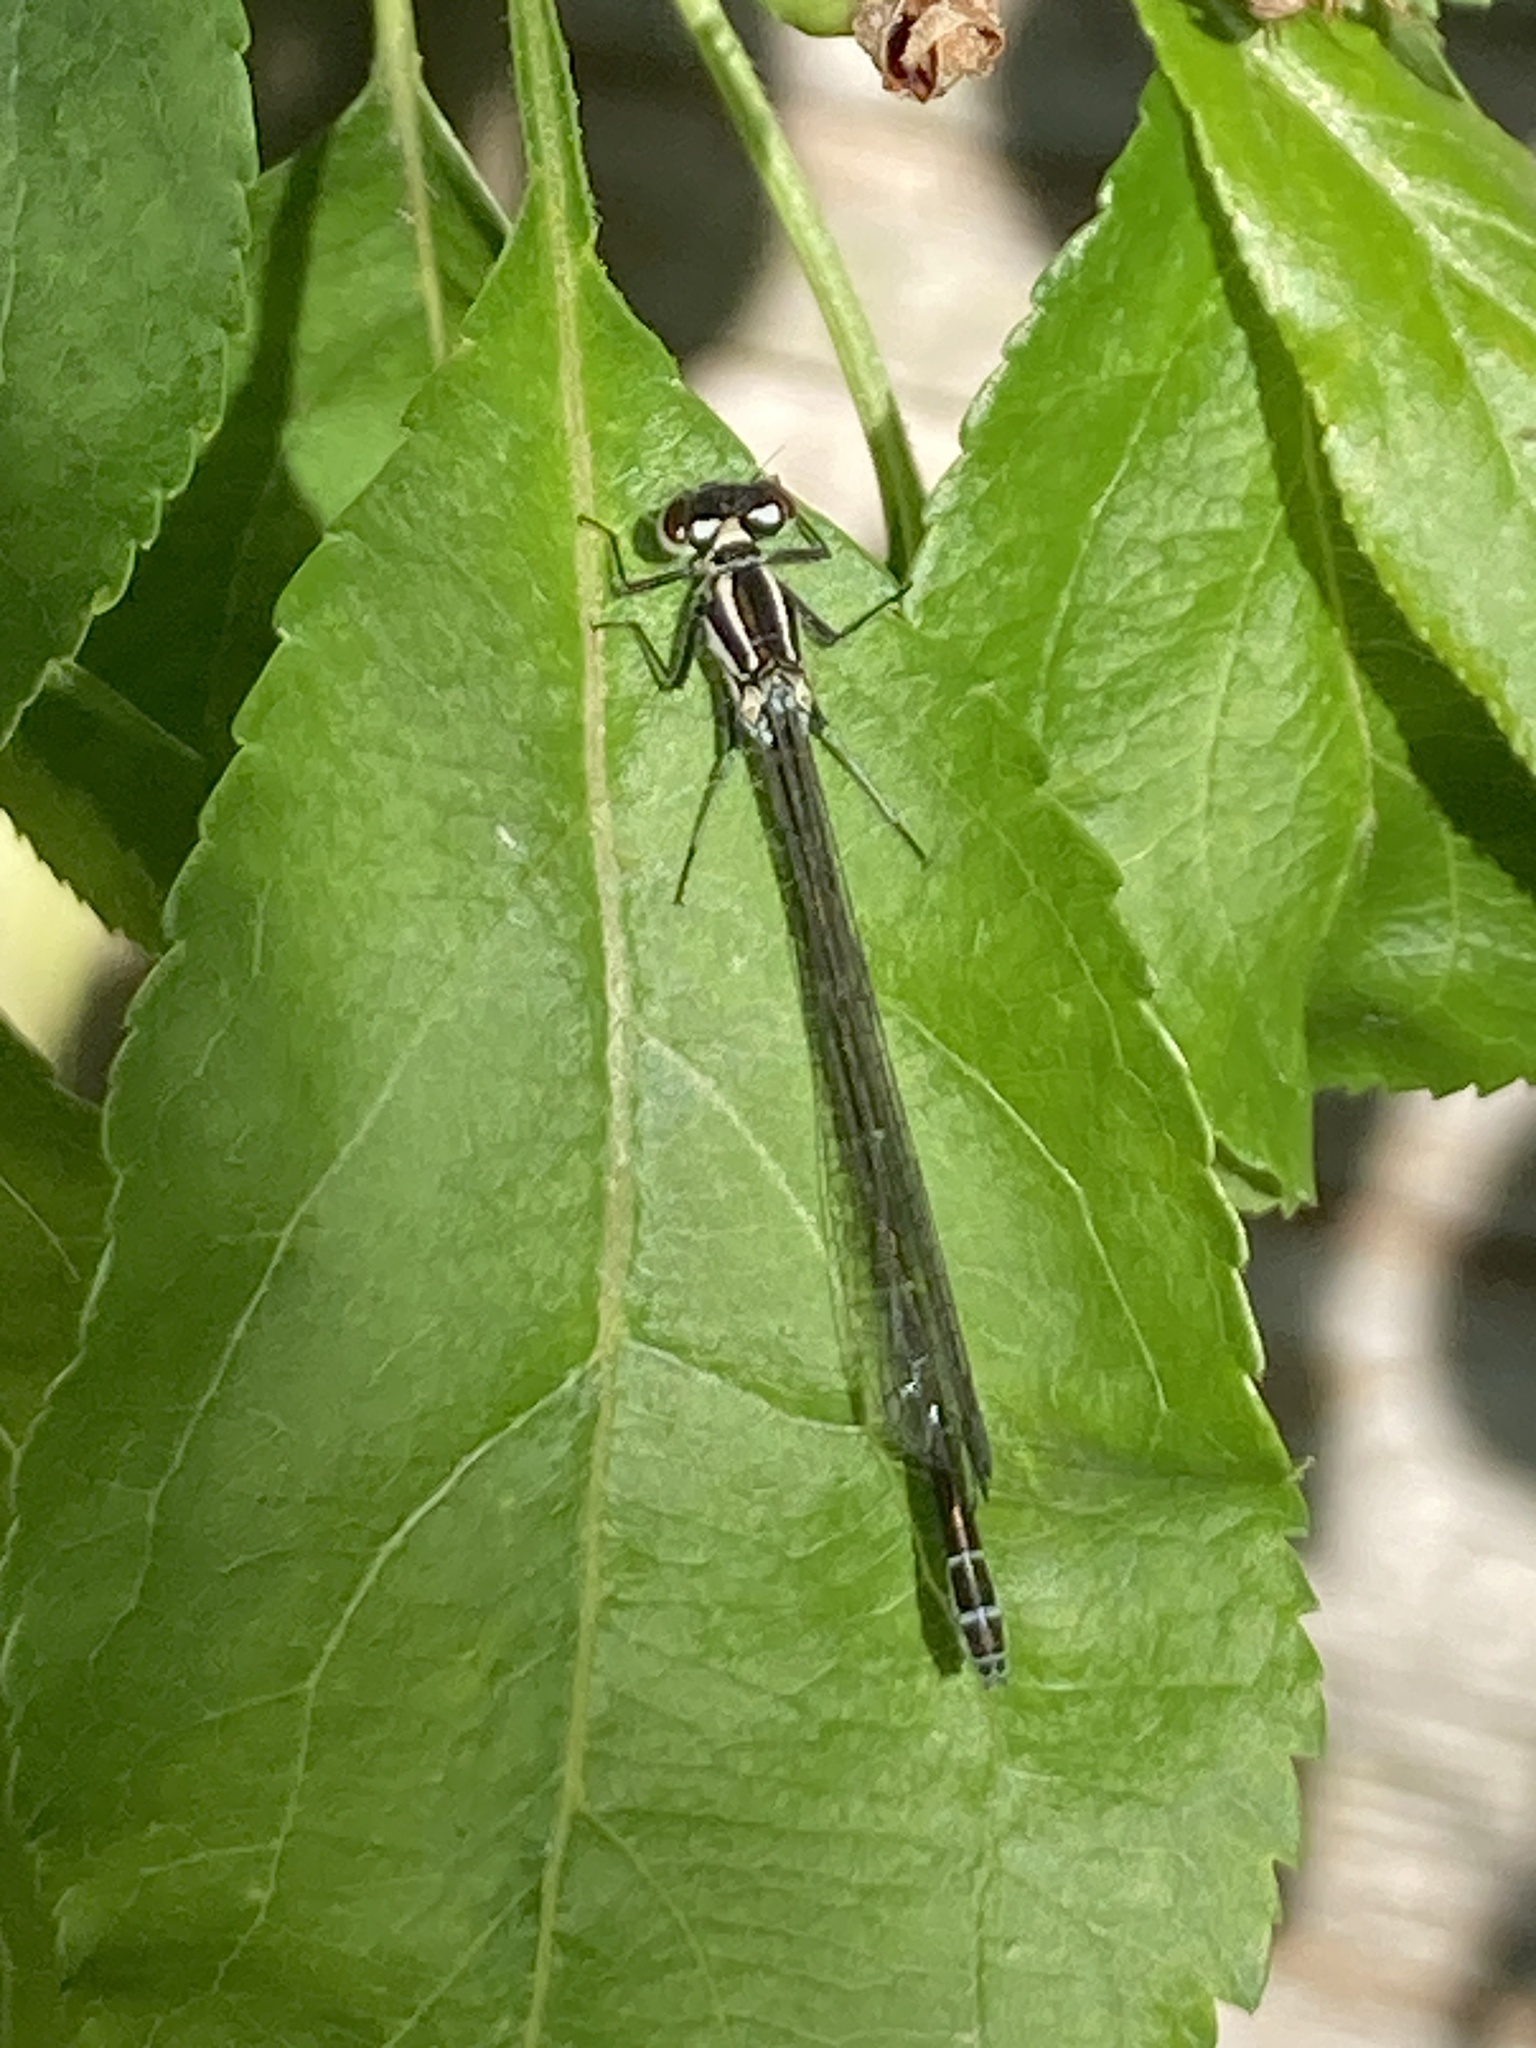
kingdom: Animalia
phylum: Arthropoda
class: Insecta
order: Odonata
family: Coenagrionidae
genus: Coenagrion
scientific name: Coenagrion puella
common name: Azure damselfly
